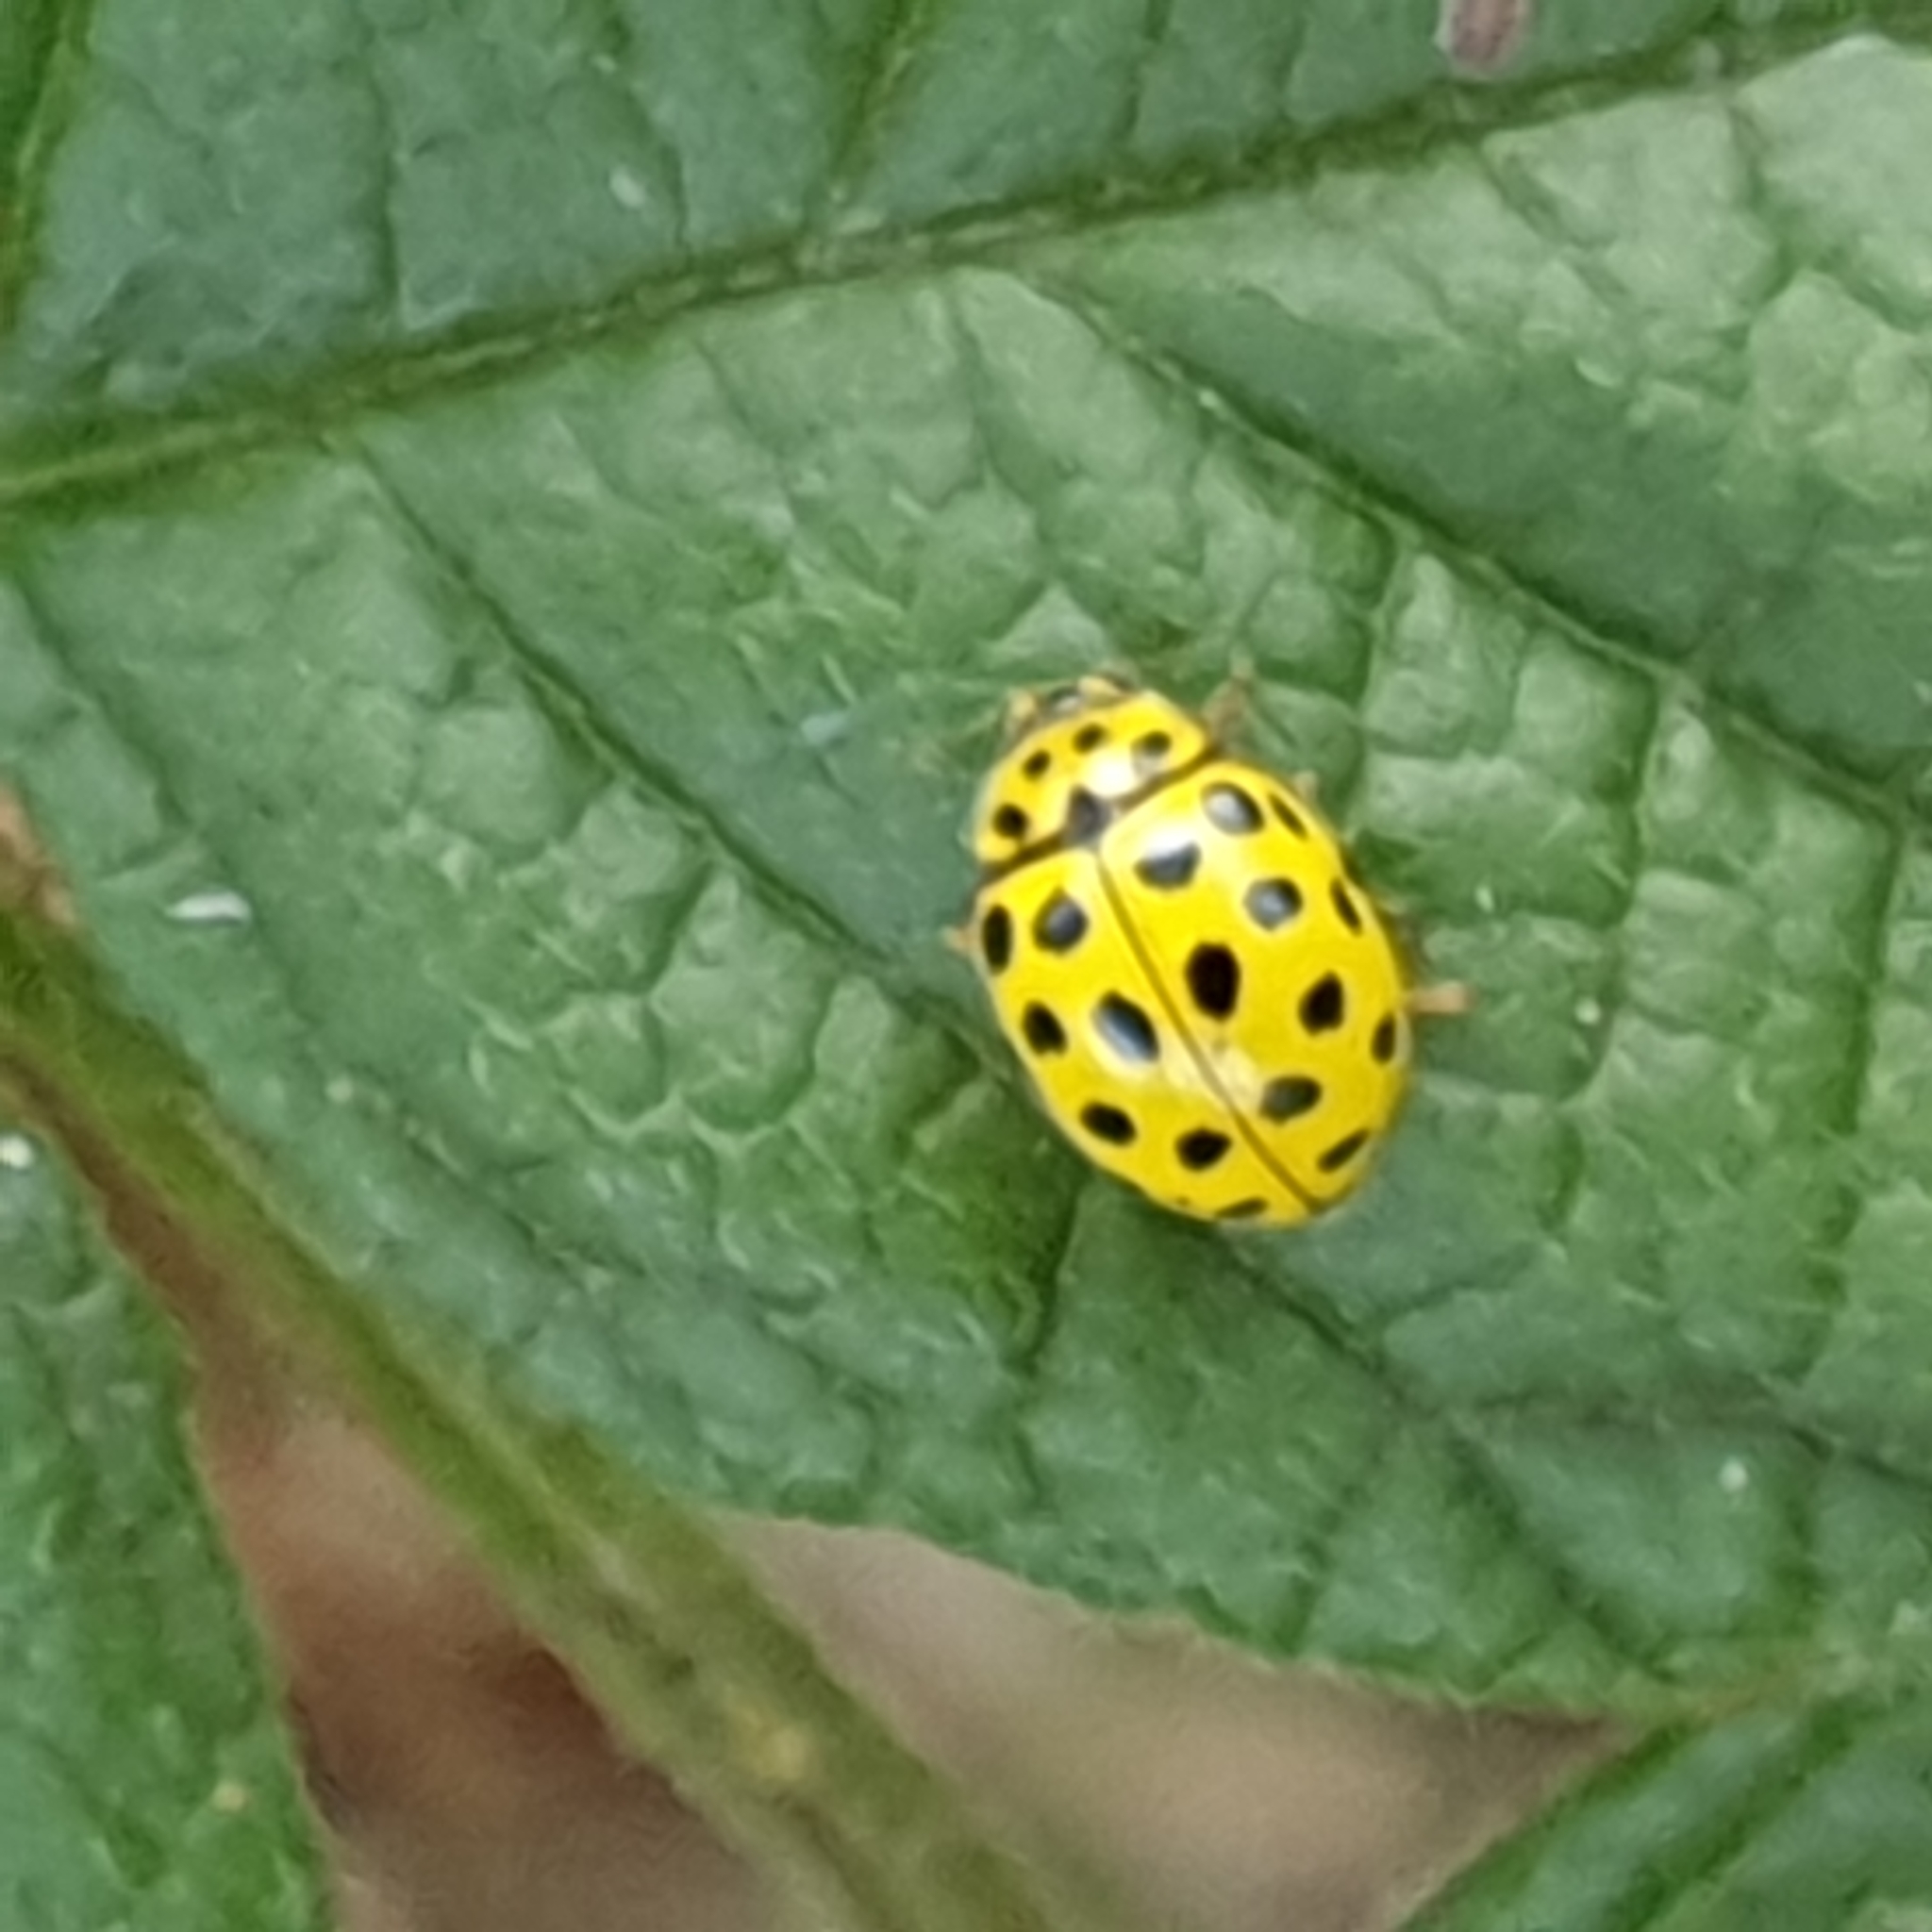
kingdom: Animalia
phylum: Arthropoda
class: Insecta
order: Coleoptera
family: Coccinellidae
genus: Psyllobora
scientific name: Psyllobora vigintiduopunctata
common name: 22-spot ladybird
